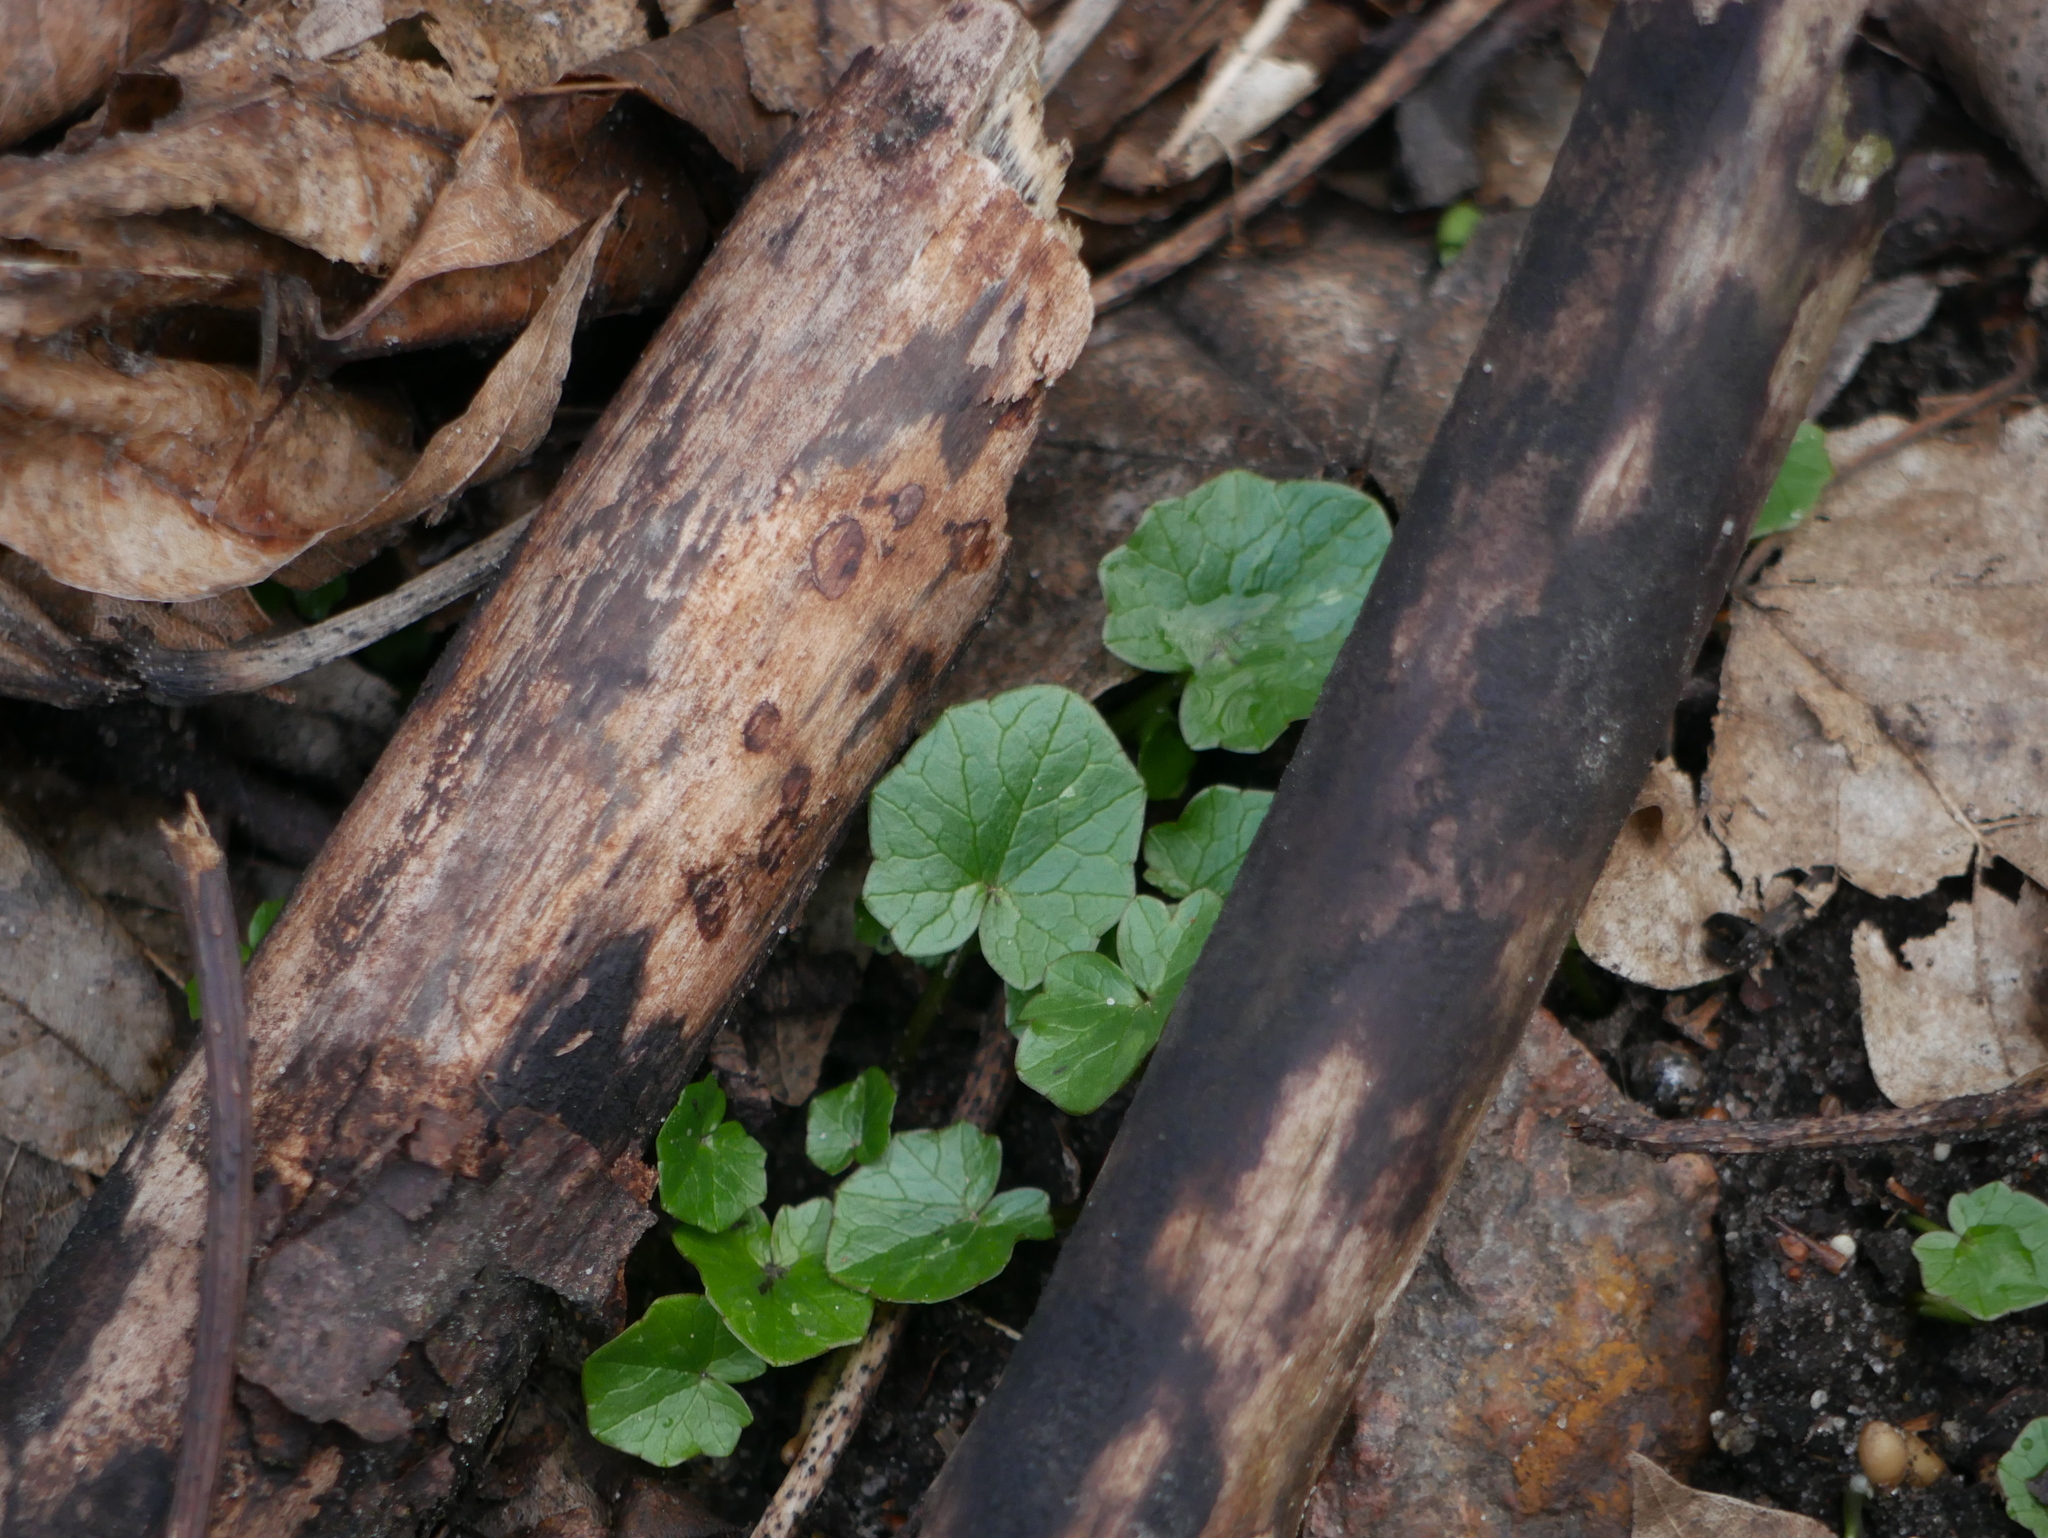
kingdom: Plantae
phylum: Tracheophyta
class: Magnoliopsida
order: Ranunculales
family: Ranunculaceae
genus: Ficaria
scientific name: Ficaria verna
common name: Lesser celandine
